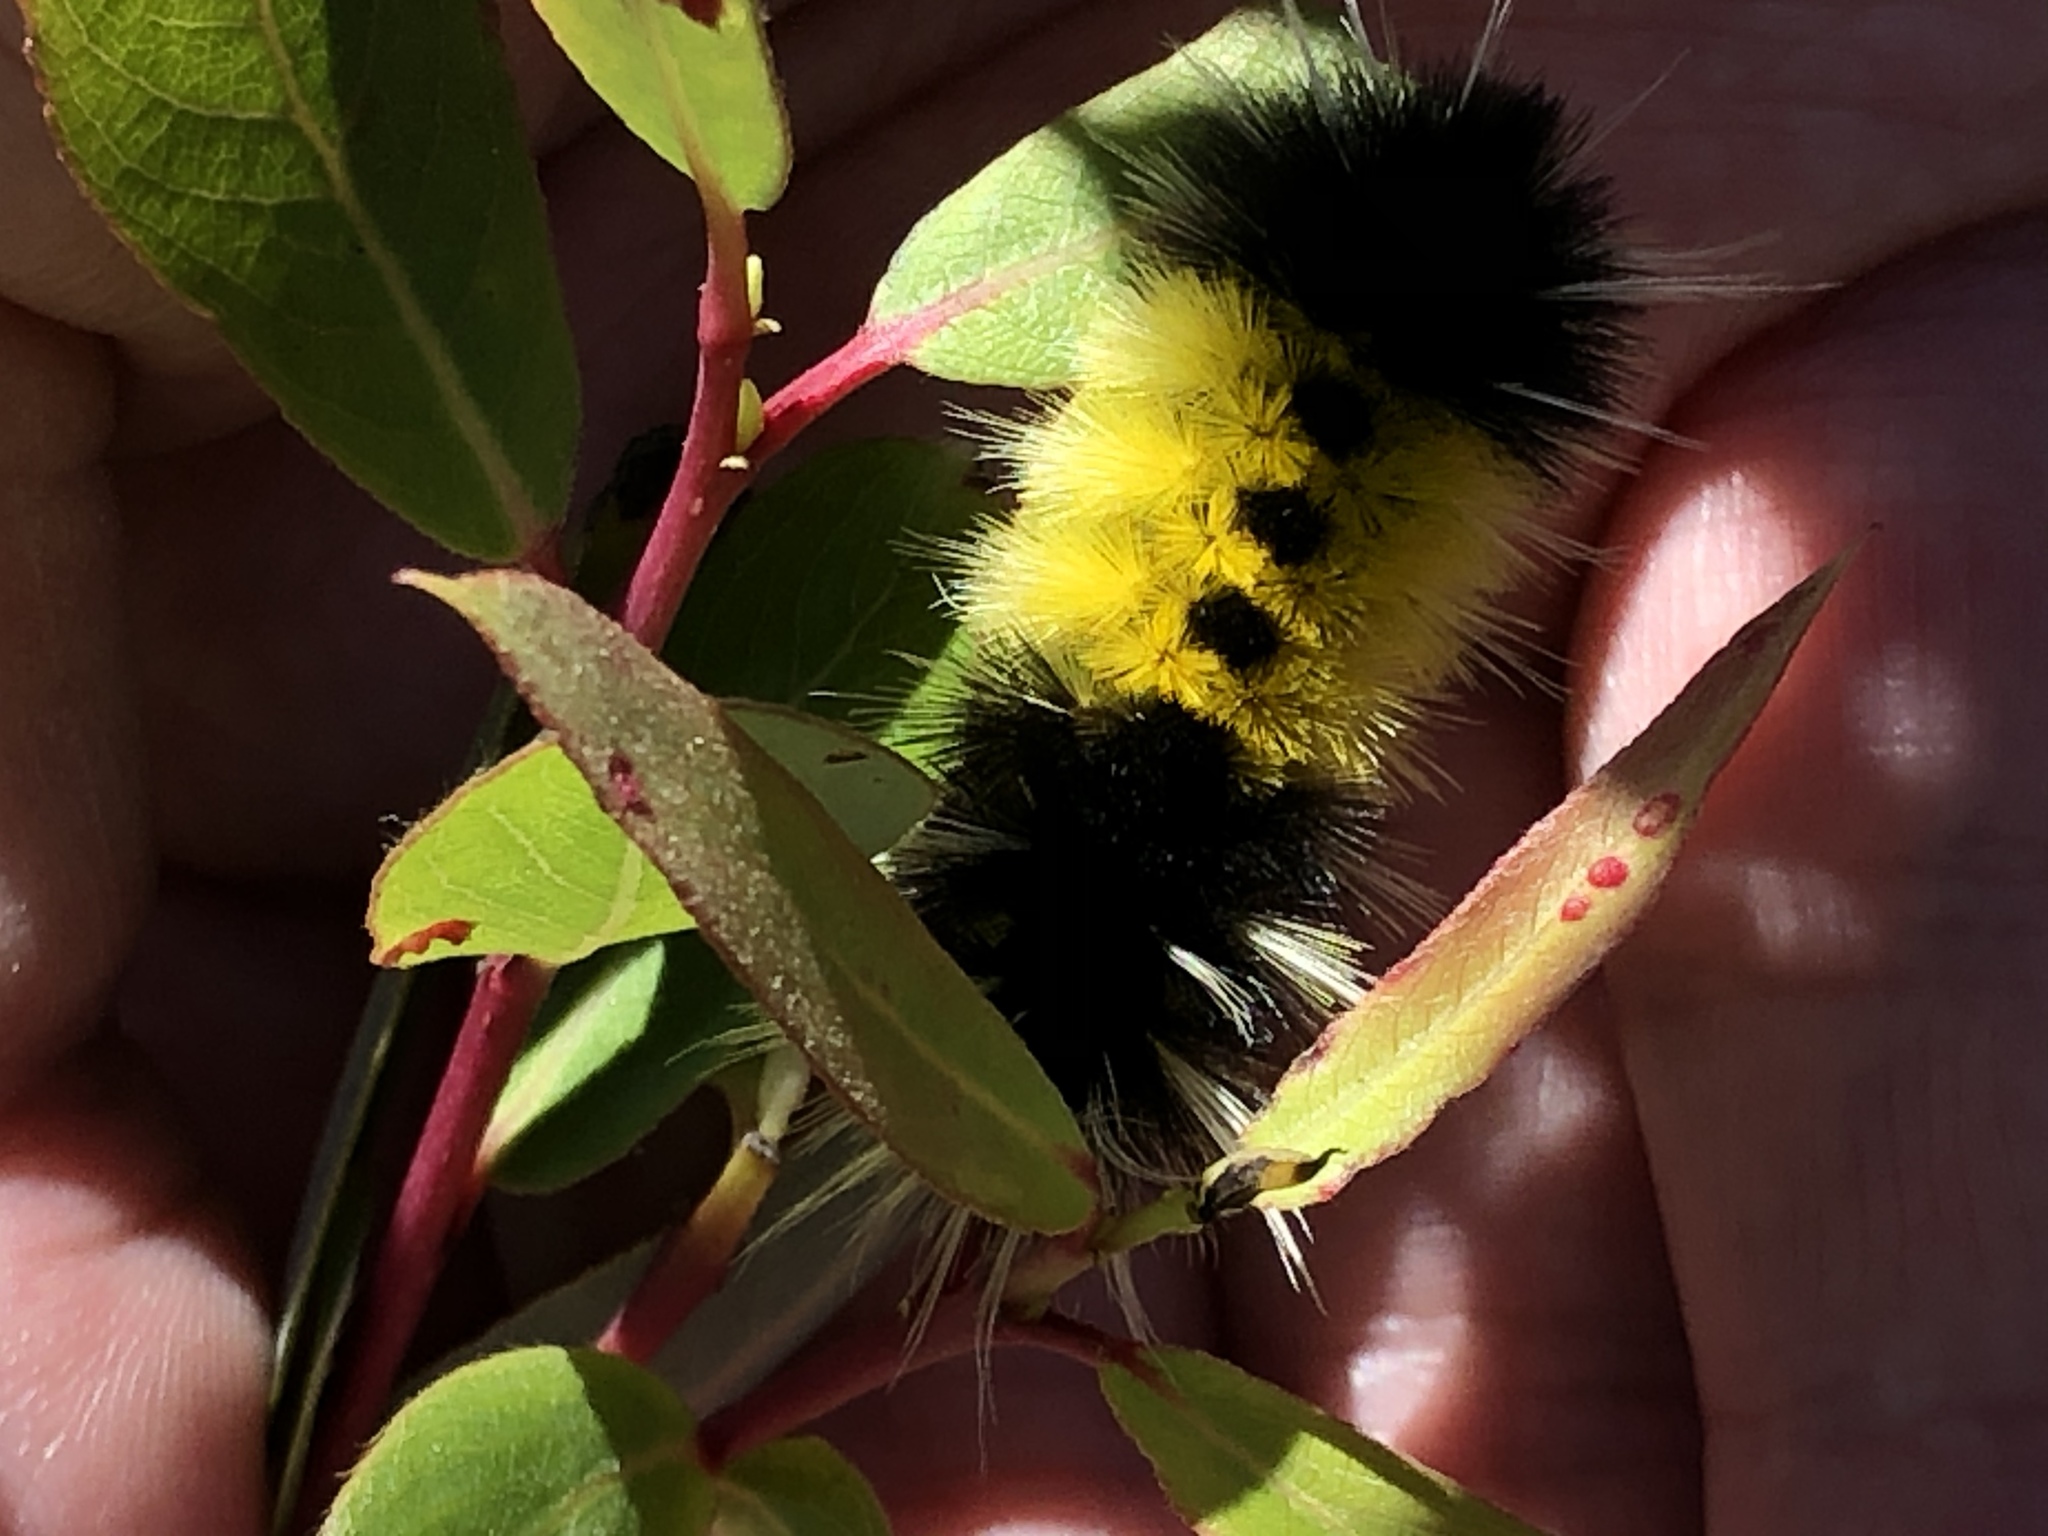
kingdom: Animalia
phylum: Arthropoda
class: Insecta
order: Lepidoptera
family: Erebidae
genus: Lophocampa
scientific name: Lophocampa maculata
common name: Spotted tussock moth
